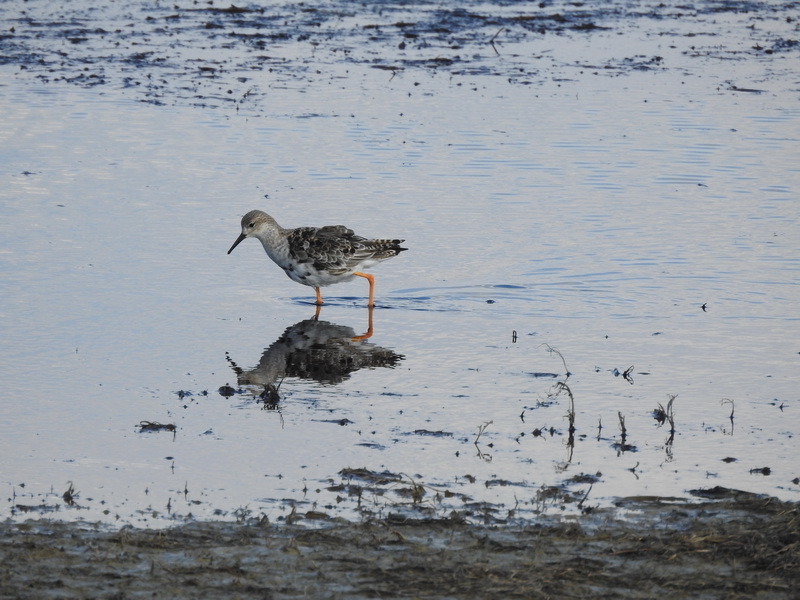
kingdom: Animalia
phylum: Chordata
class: Aves
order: Charadriiformes
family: Scolopacidae
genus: Calidris
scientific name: Calidris pugnax
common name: Ruff
